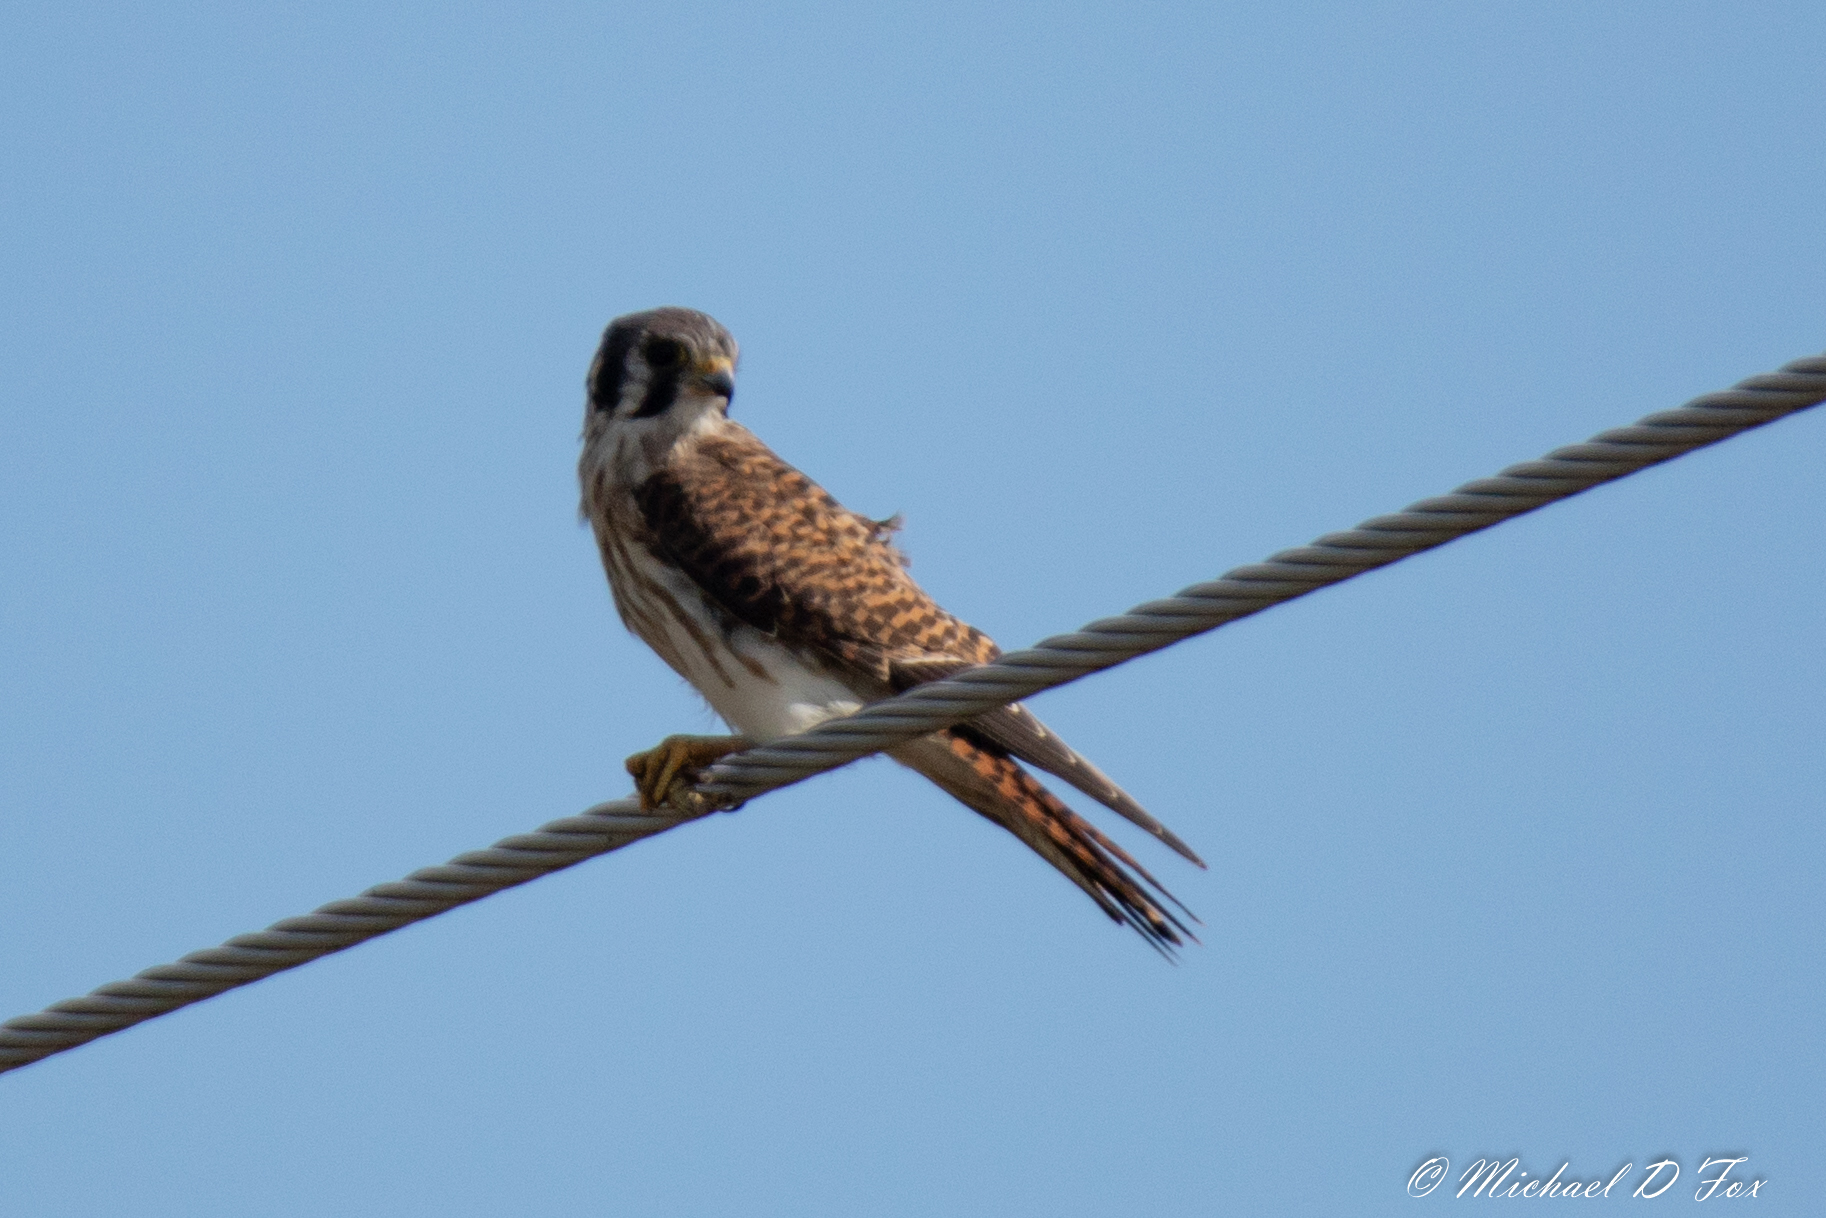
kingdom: Animalia
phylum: Chordata
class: Aves
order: Falconiformes
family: Falconidae
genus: Falco
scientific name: Falco sparverius
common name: American kestrel
